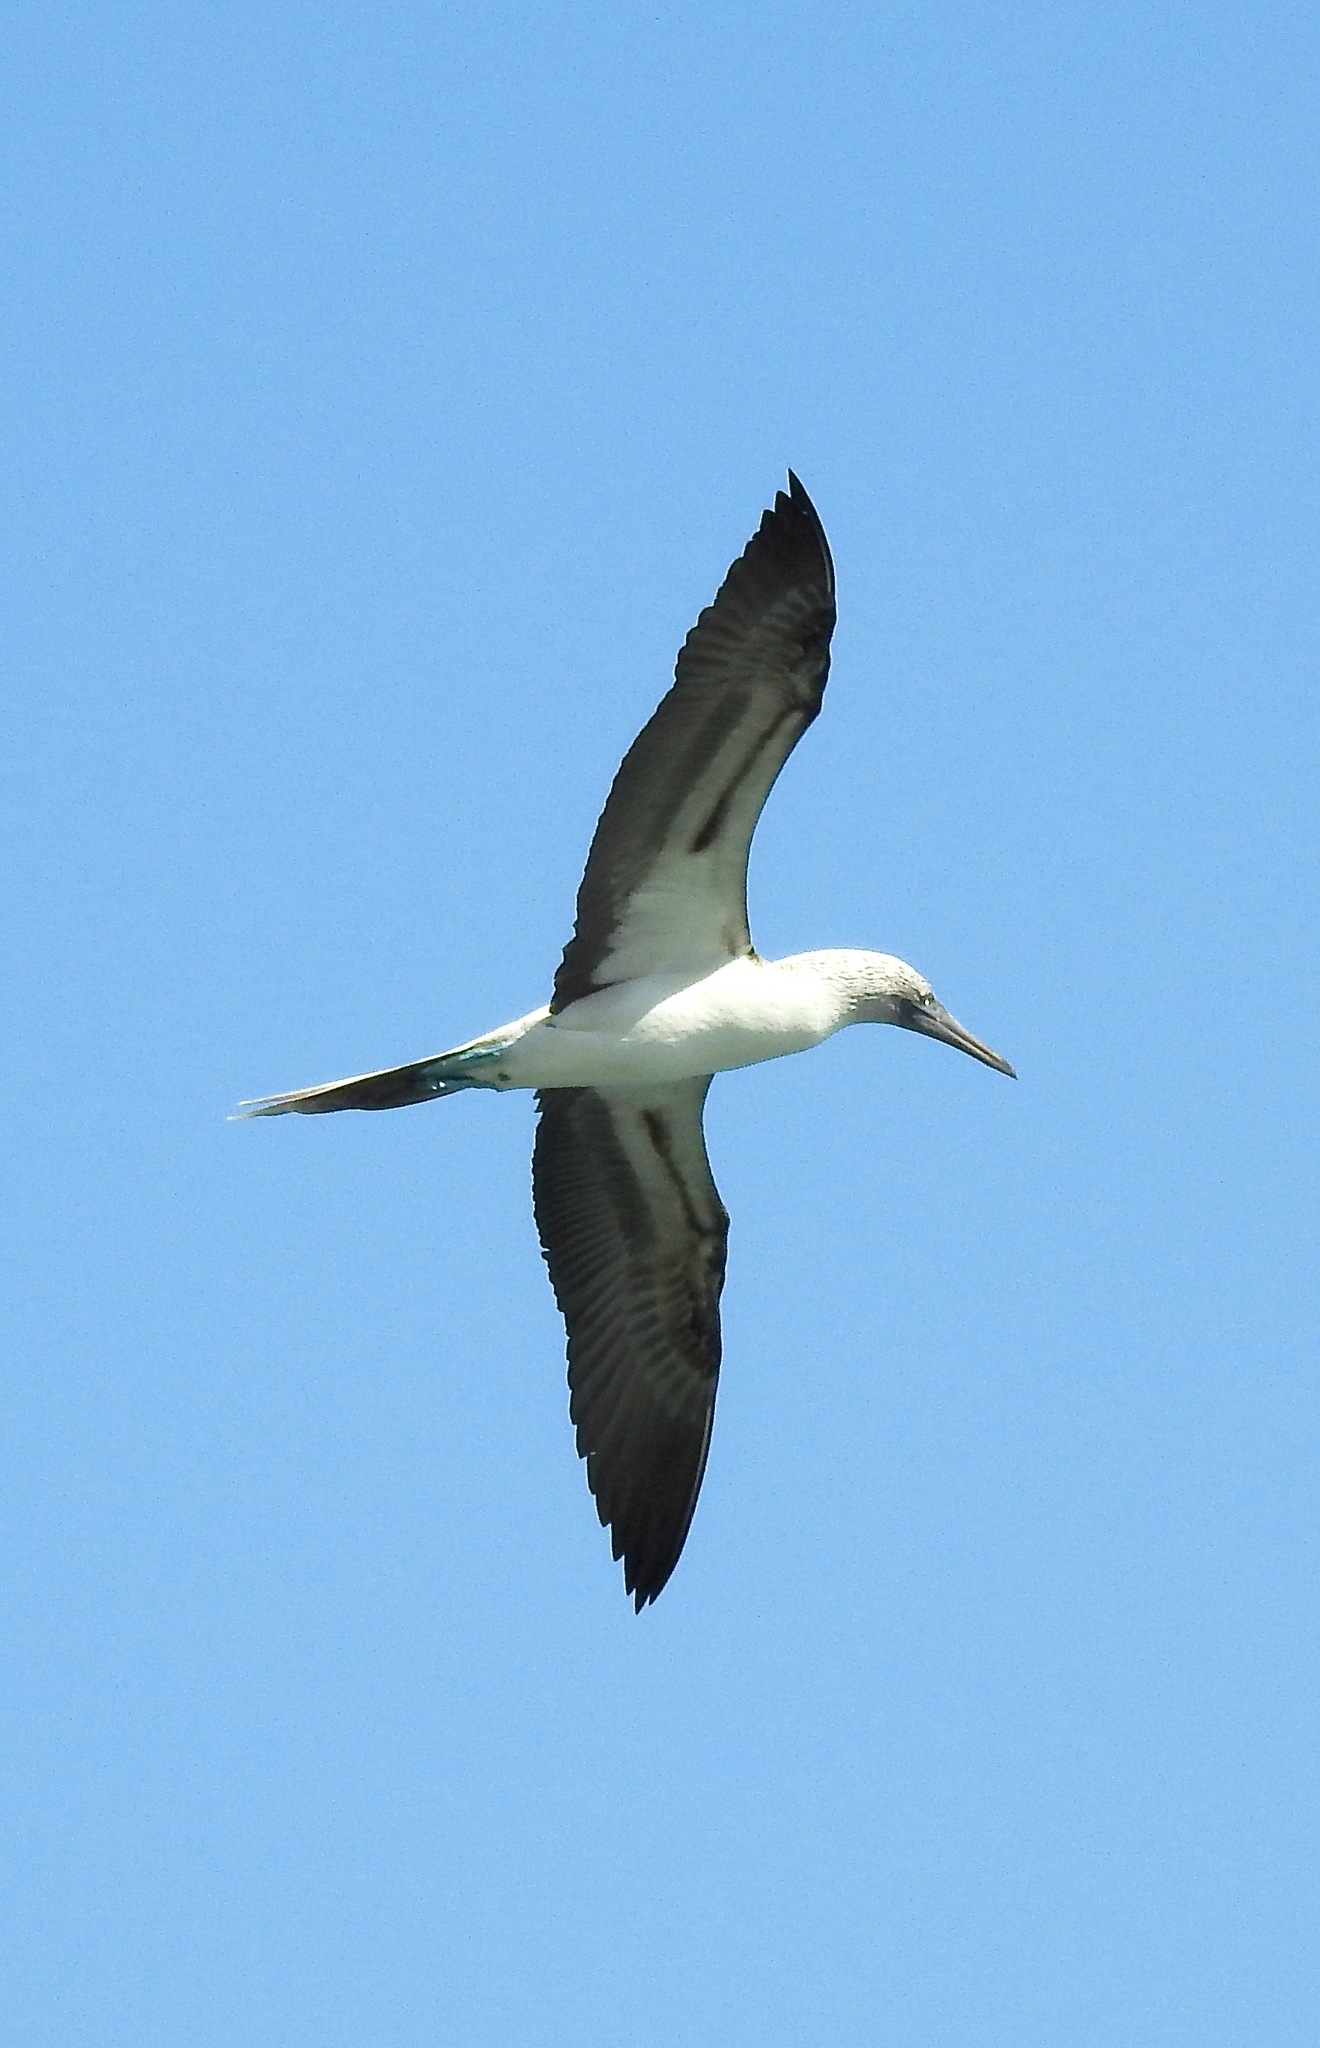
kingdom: Animalia
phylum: Chordata
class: Aves
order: Suliformes
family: Sulidae
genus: Sula
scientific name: Sula nebouxii
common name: Blue-footed booby
